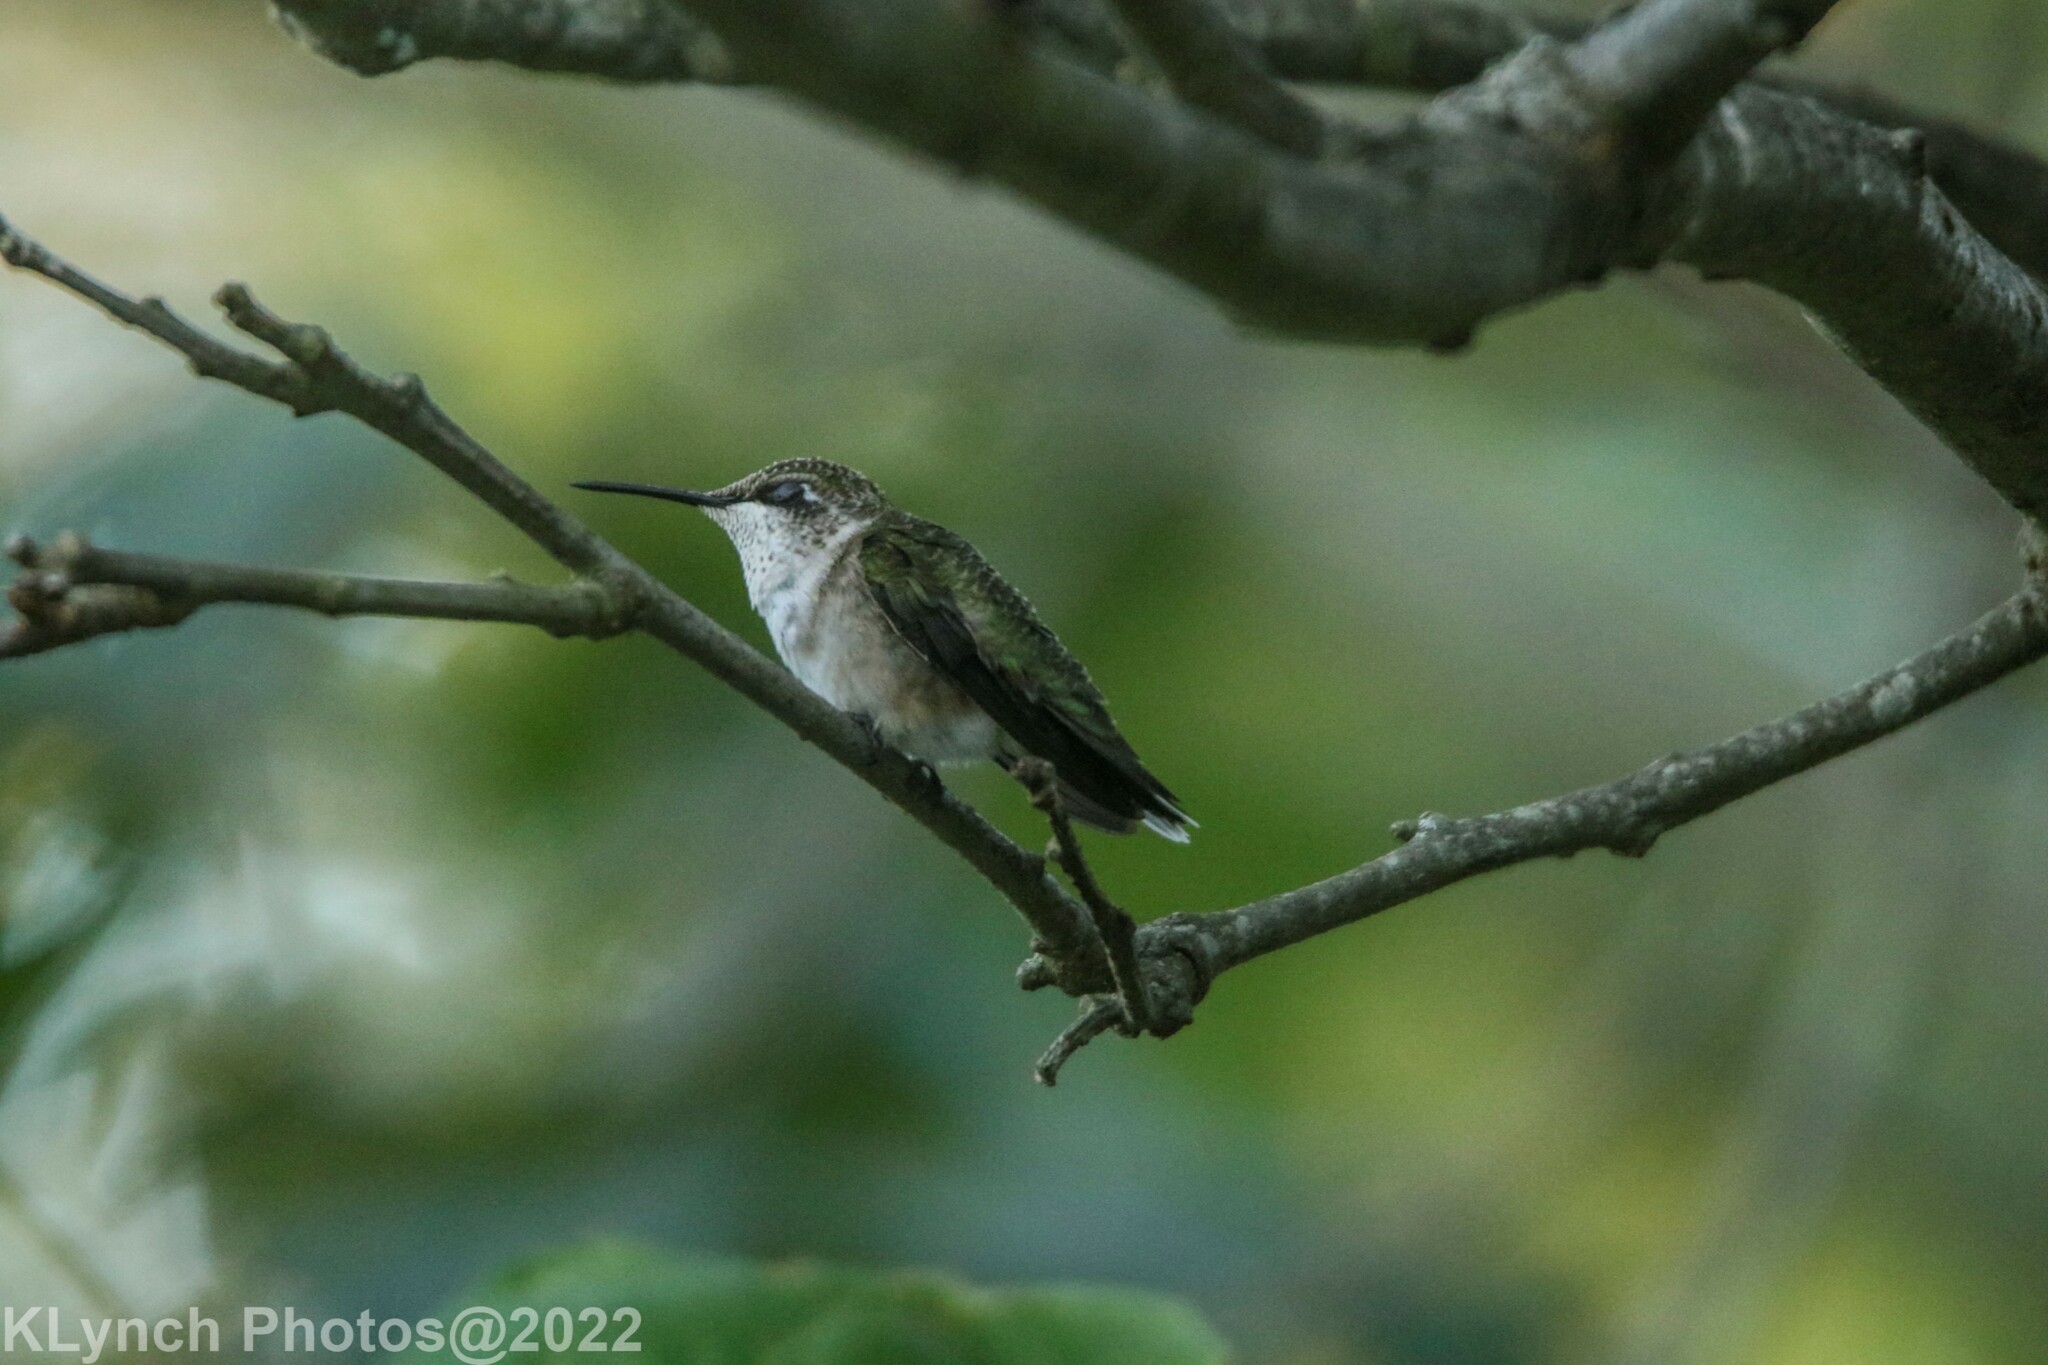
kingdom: Animalia
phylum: Chordata
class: Aves
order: Apodiformes
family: Trochilidae
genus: Archilochus
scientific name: Archilochus colubris
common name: Ruby-throated hummingbird
